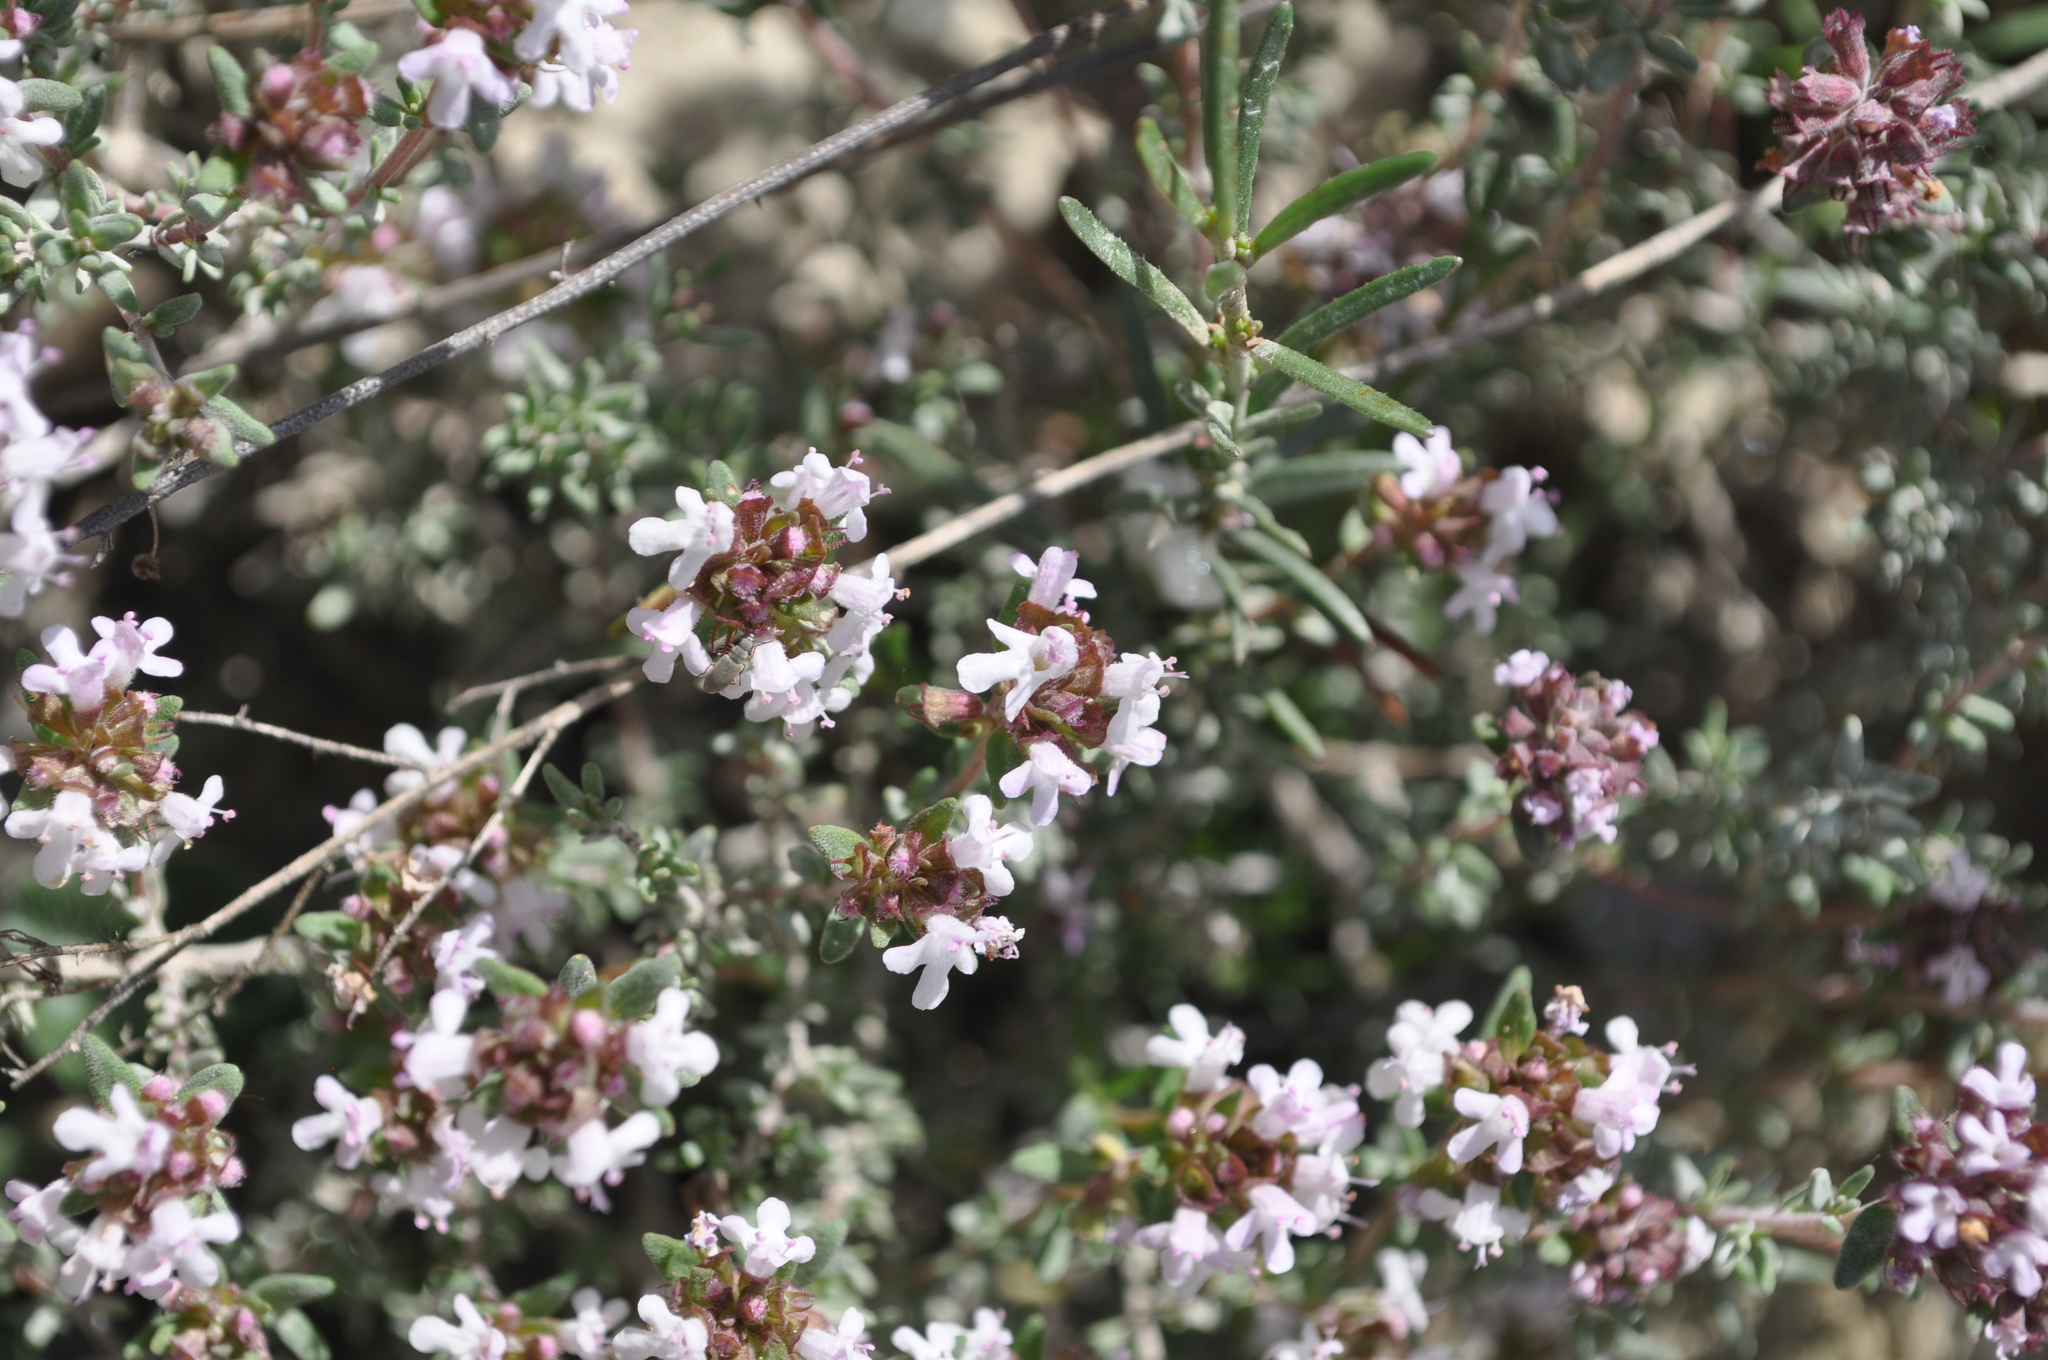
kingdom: Plantae
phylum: Tracheophyta
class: Magnoliopsida
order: Lamiales
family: Lamiaceae
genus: Thymus
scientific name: Thymus vulgaris
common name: Garden thyme
